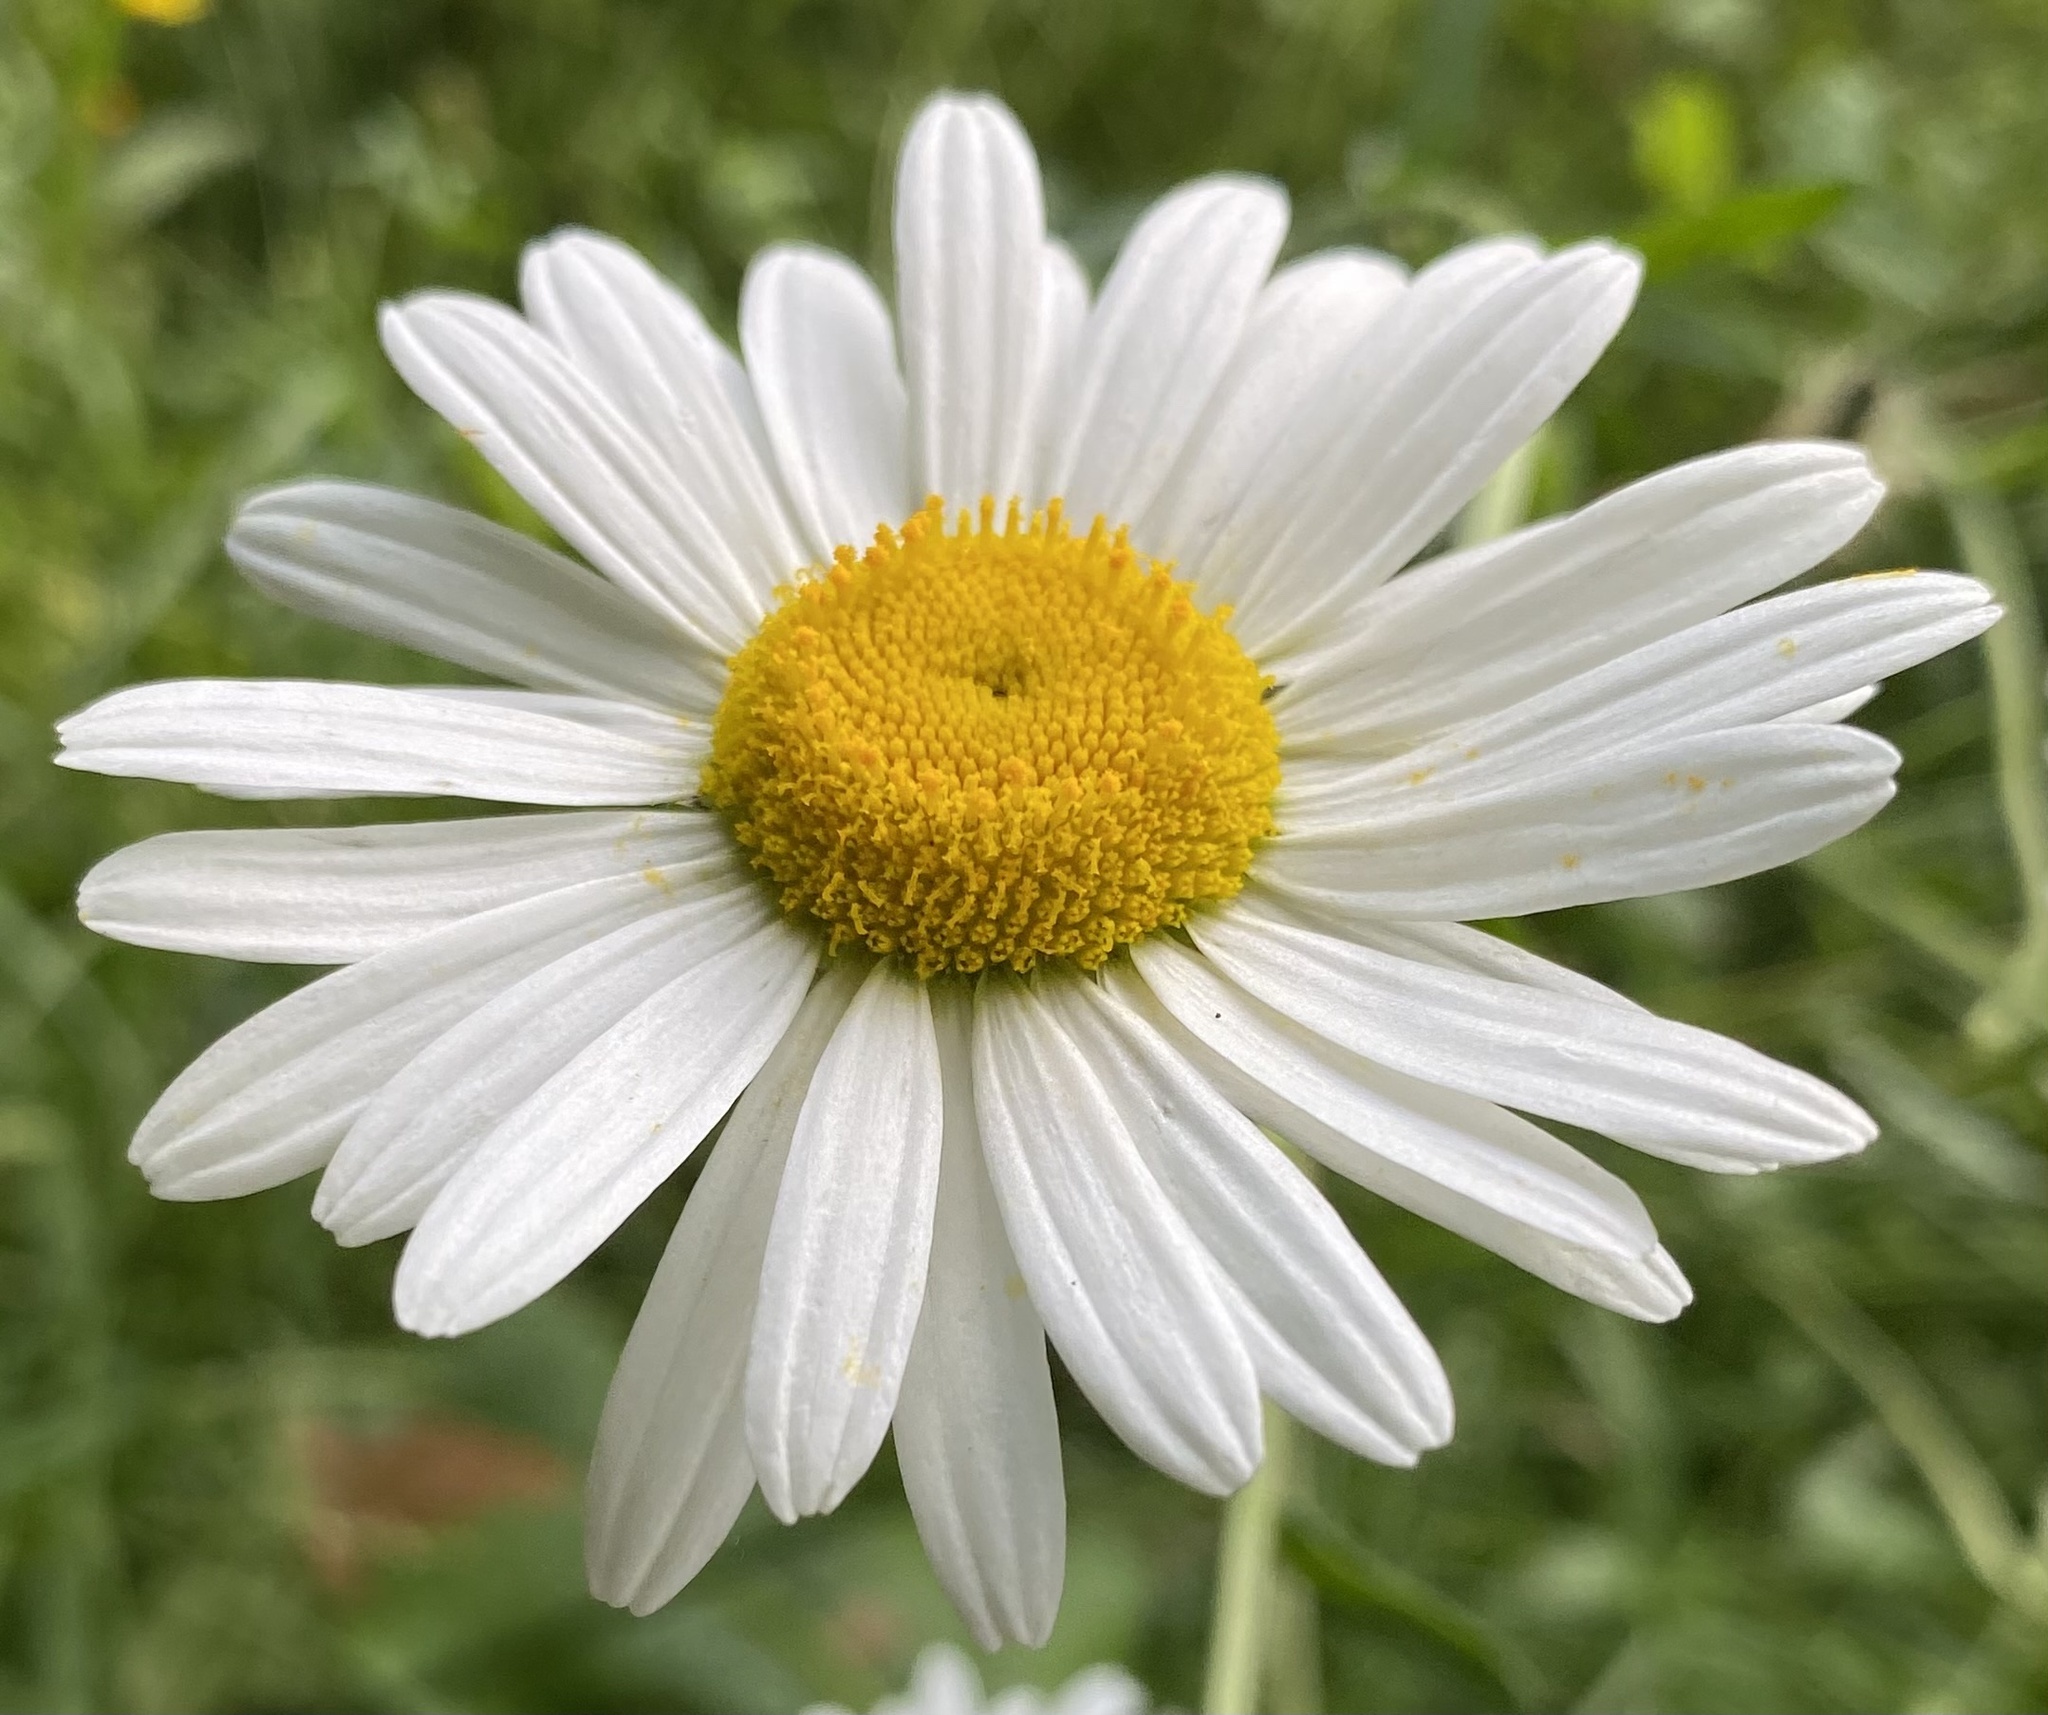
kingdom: Plantae
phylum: Tracheophyta
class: Magnoliopsida
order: Asterales
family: Asteraceae
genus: Leucanthemum
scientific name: Leucanthemum vulgare
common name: Oxeye daisy
